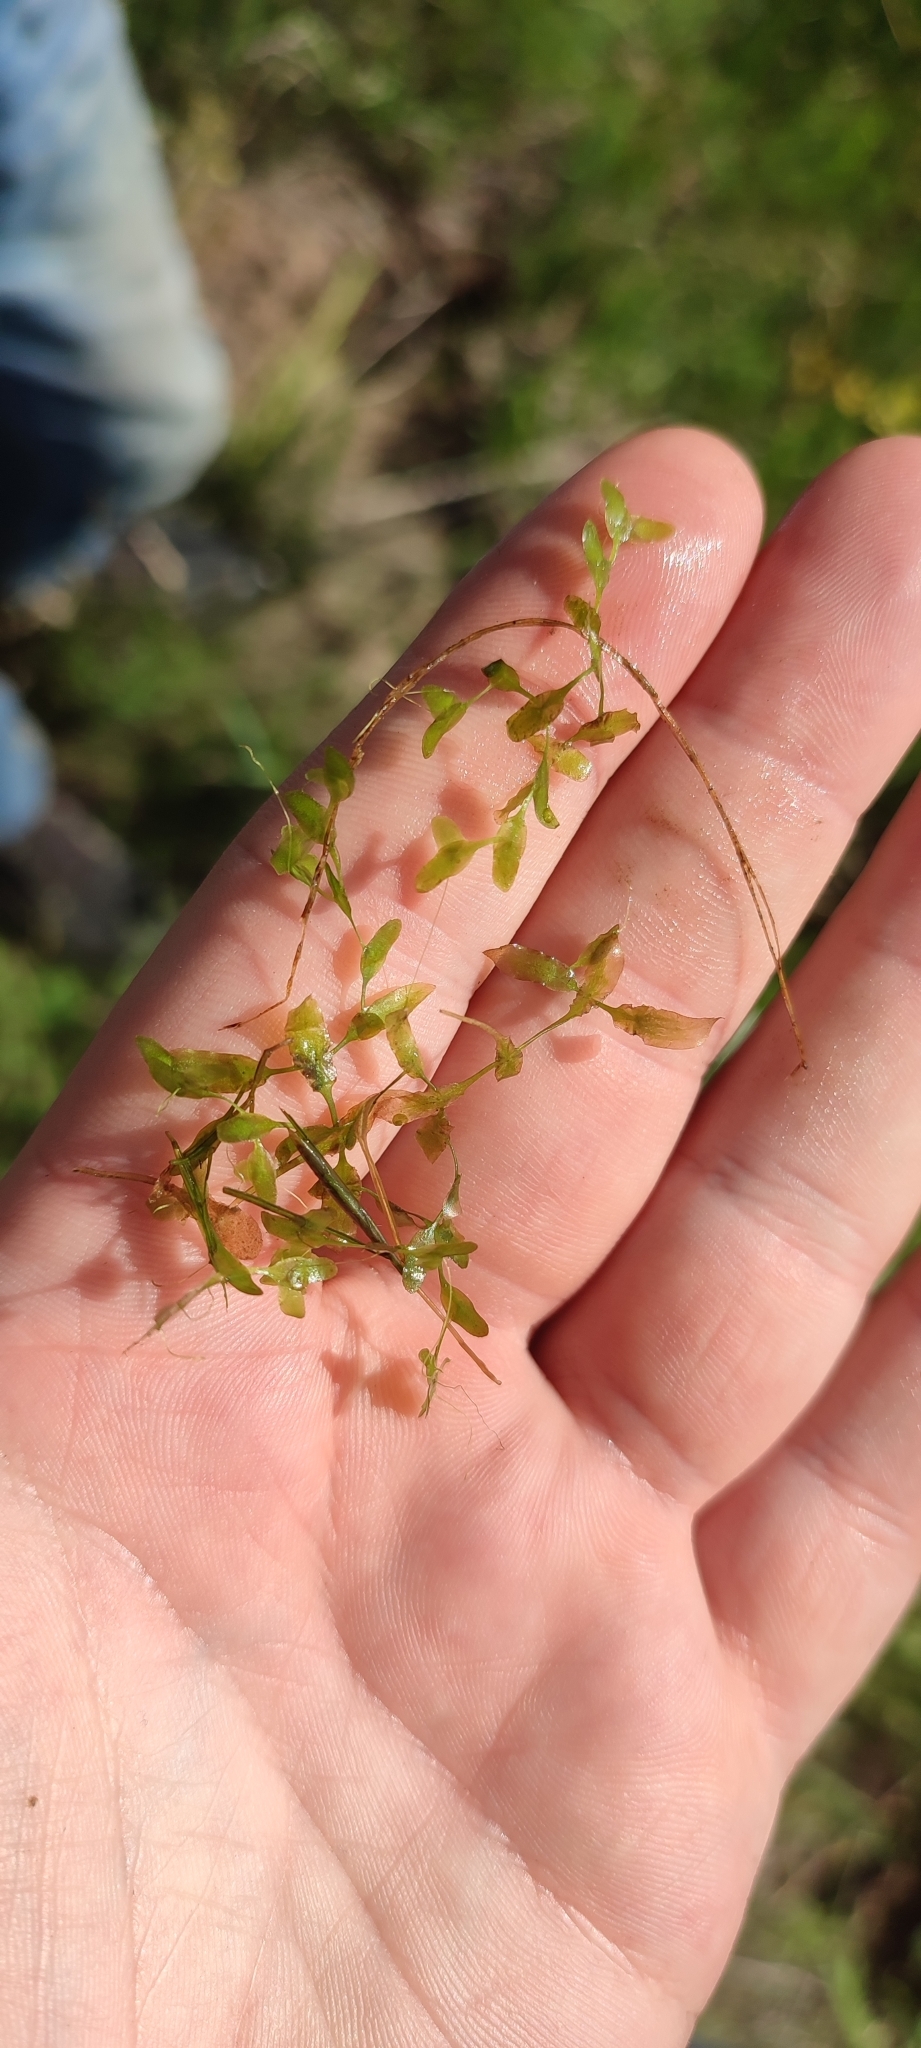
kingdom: Plantae
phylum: Tracheophyta
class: Liliopsida
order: Alismatales
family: Araceae
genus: Lemna
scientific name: Lemna trisulca
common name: Ivy-leaved duckweed
